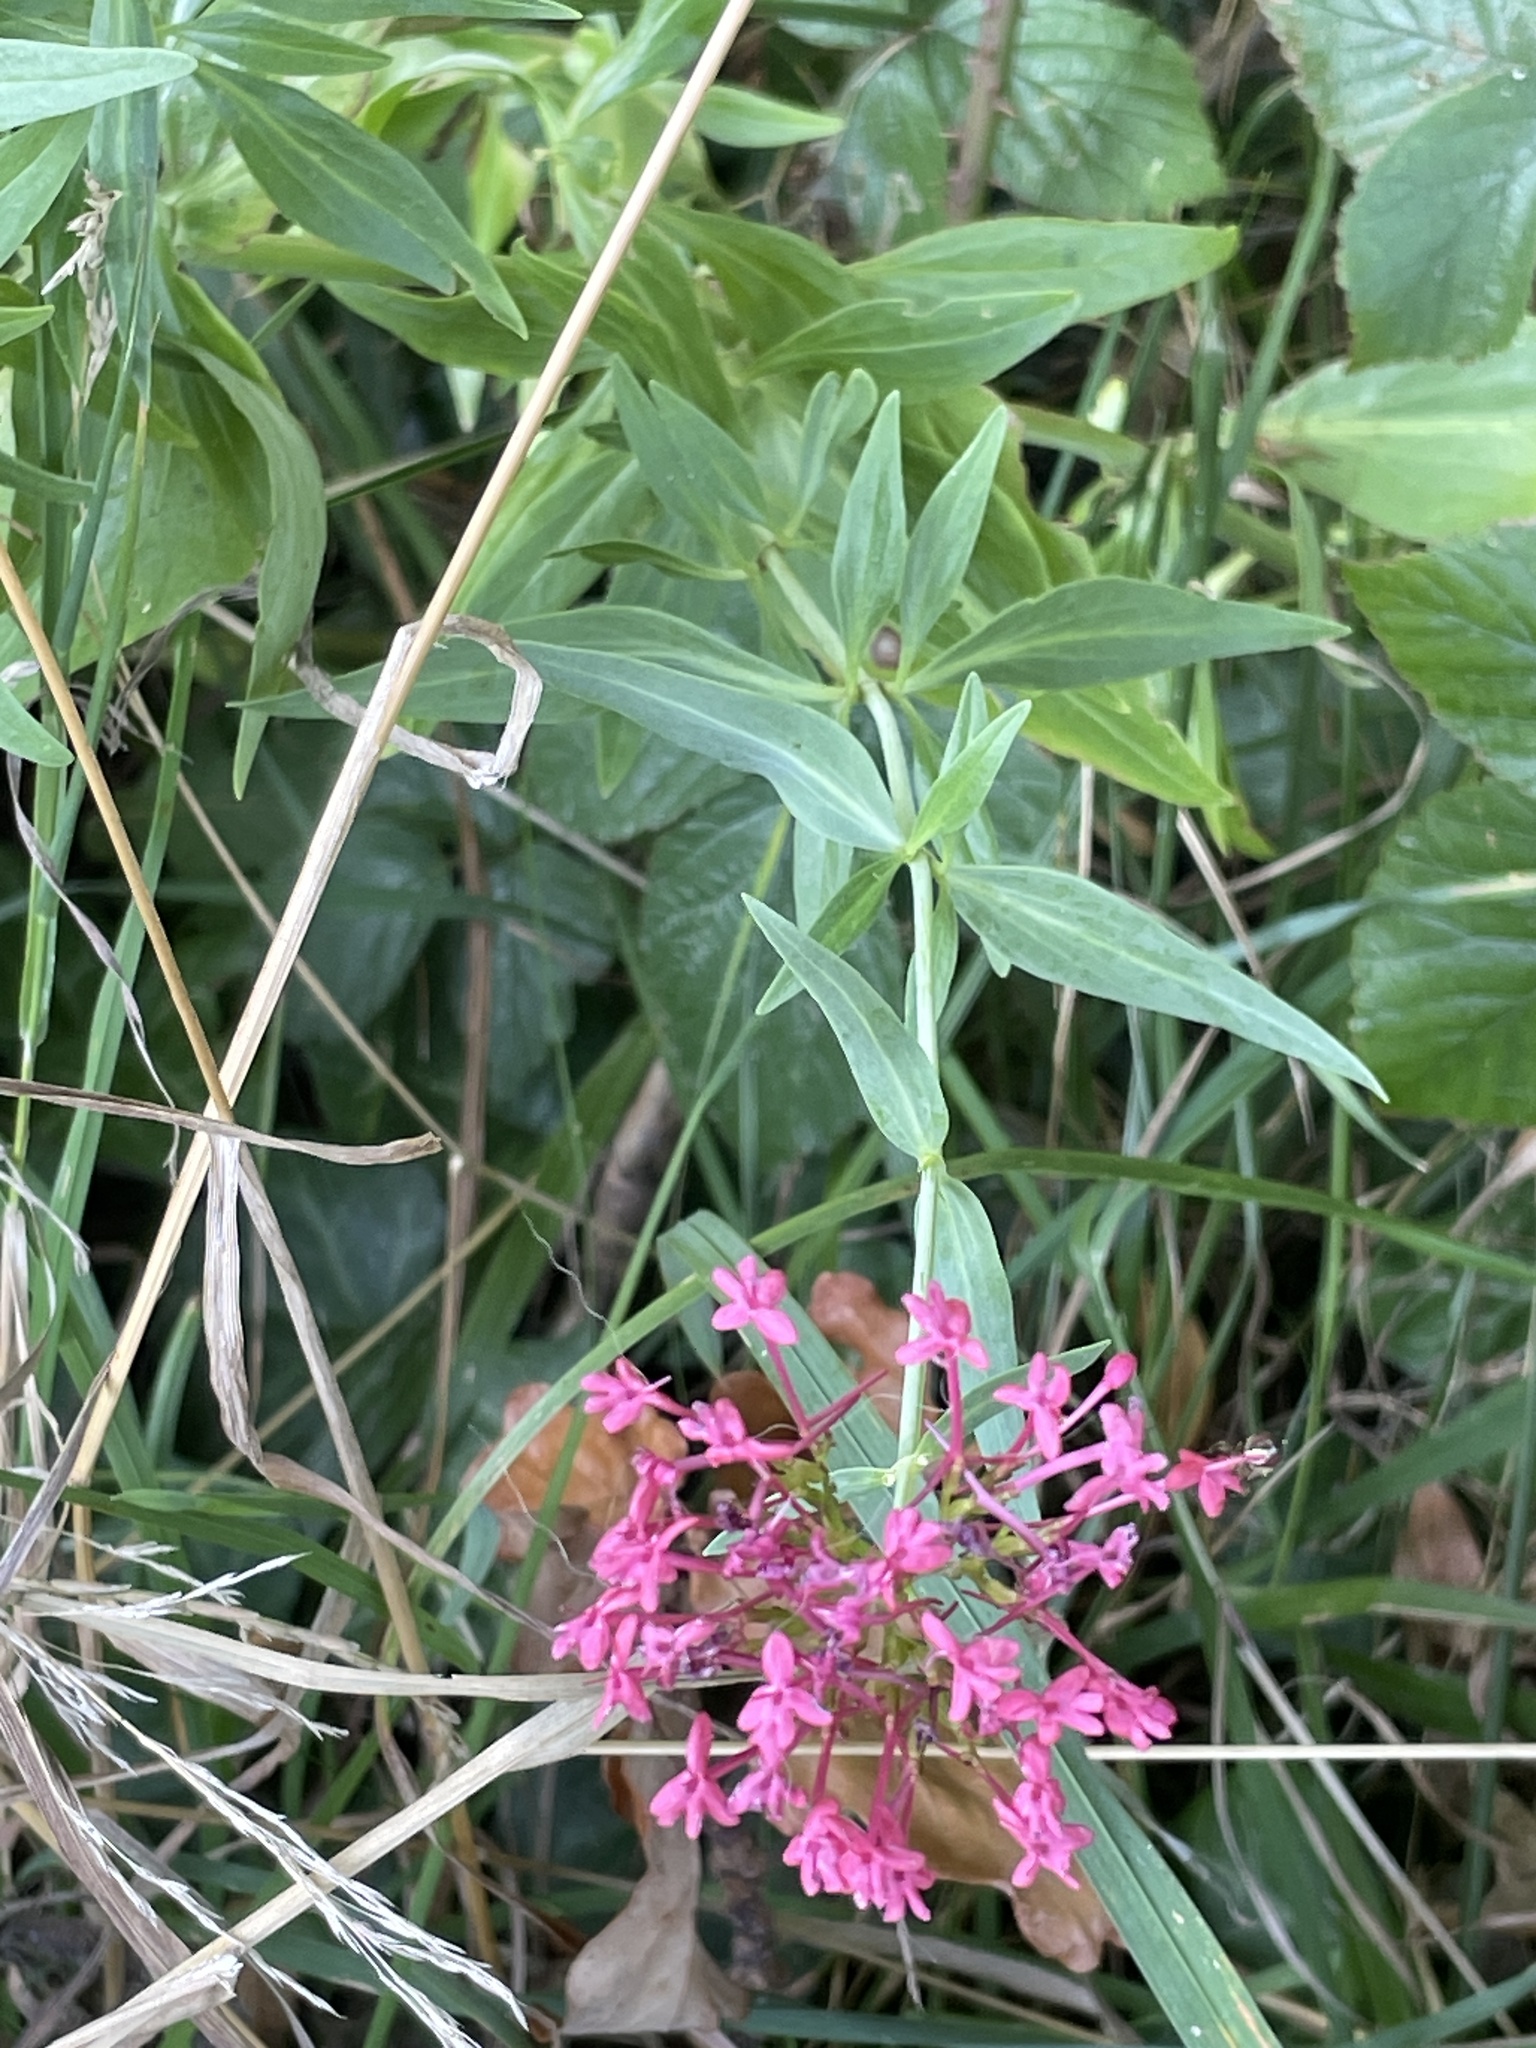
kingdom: Plantae
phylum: Tracheophyta
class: Magnoliopsida
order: Dipsacales
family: Caprifoliaceae
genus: Centranthus
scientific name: Centranthus ruber
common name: Red valerian
